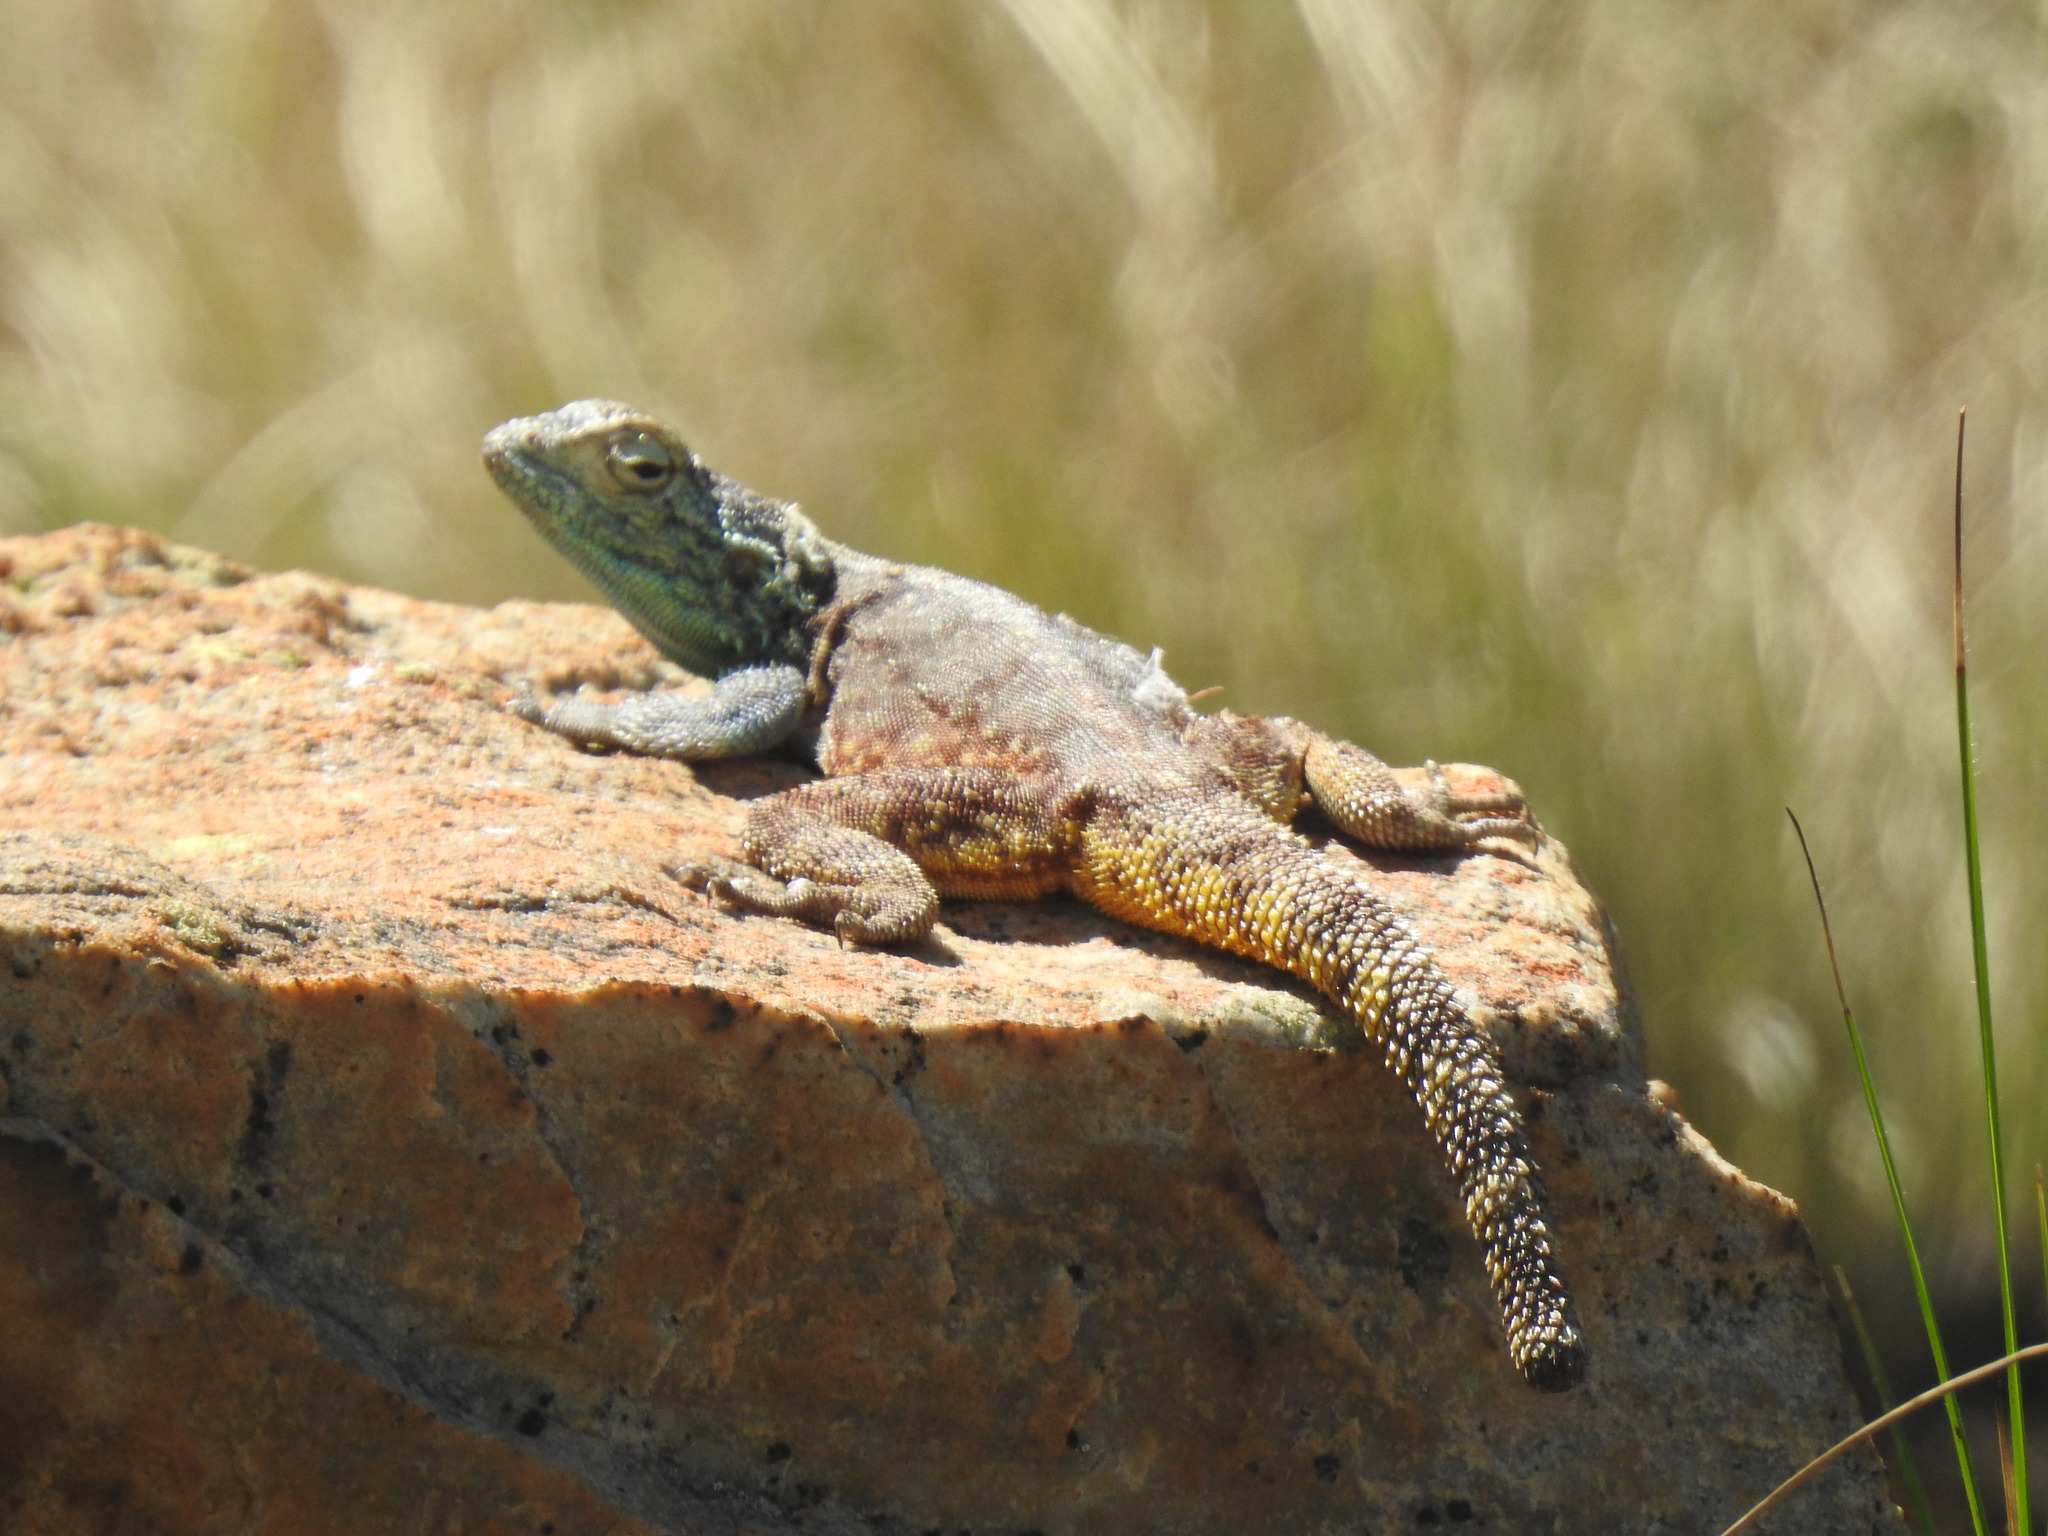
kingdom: Animalia
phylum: Chordata
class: Squamata
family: Agamidae
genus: Agama
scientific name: Agama atra
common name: Southern african rock agama
